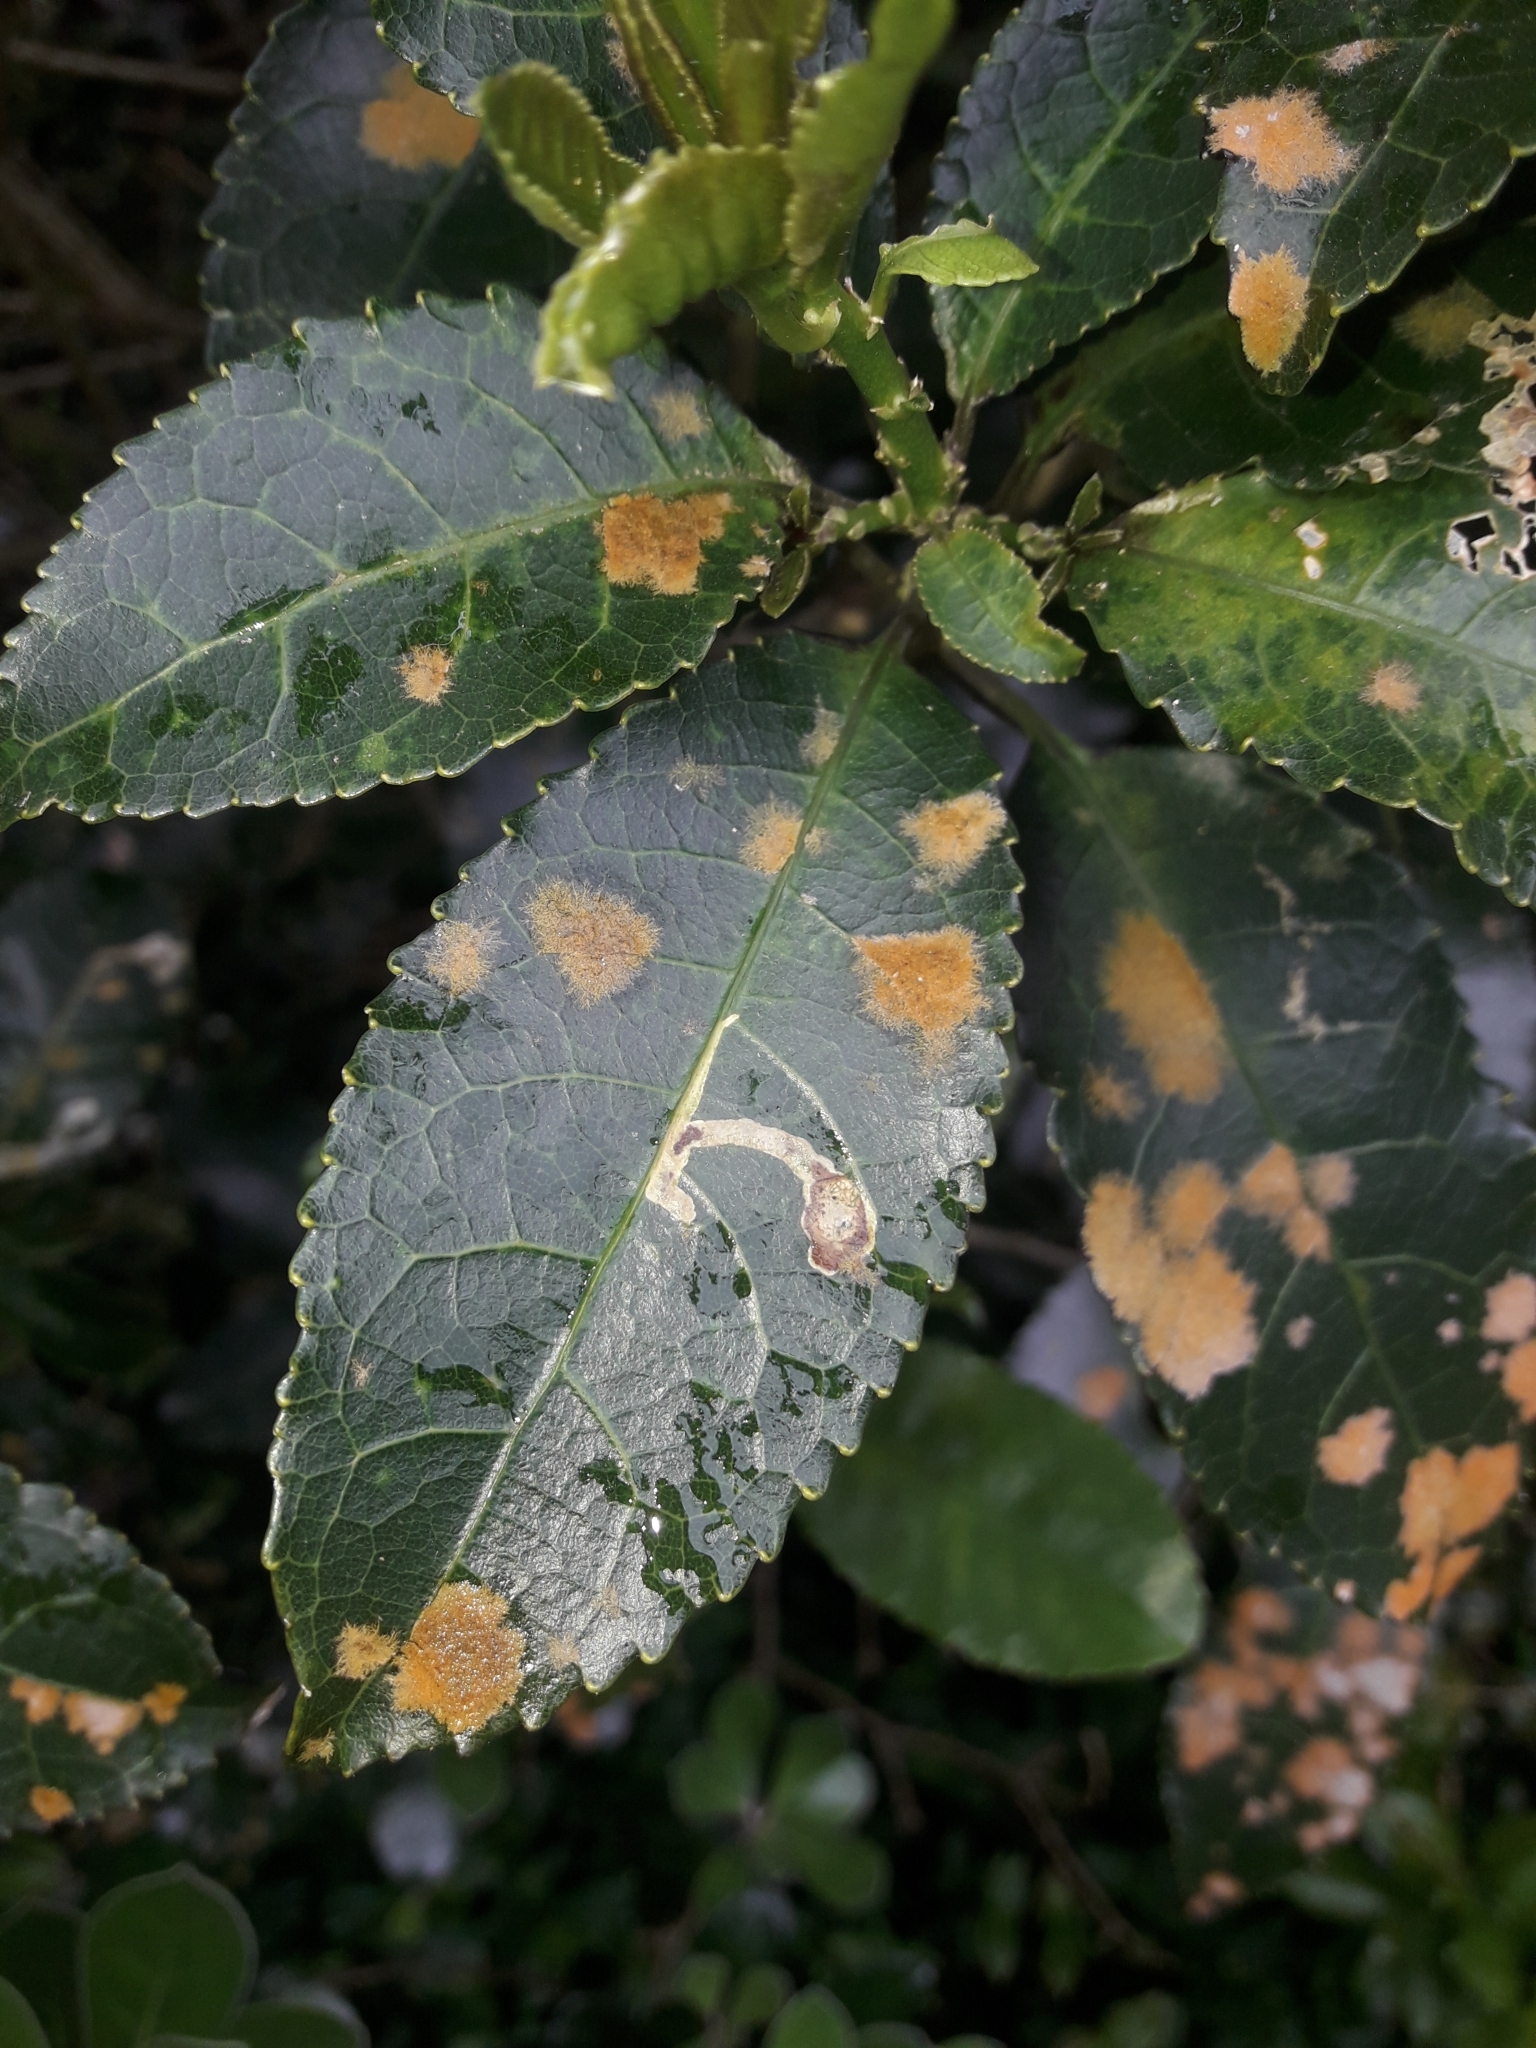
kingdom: Plantae
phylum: Chlorophyta
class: Ulvophyceae
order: Trentepohliales
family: Trentepohliaceae
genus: Cephaleuros
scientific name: Cephaleuros
